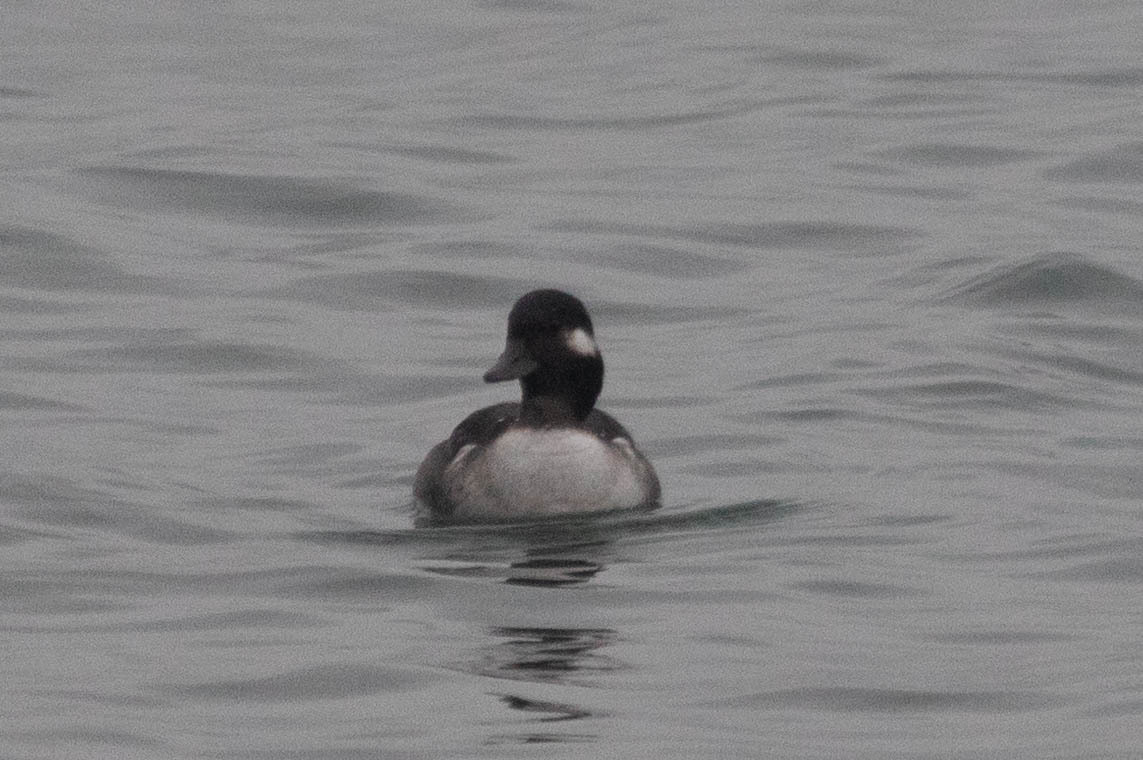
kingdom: Animalia
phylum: Chordata
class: Aves
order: Anseriformes
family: Anatidae
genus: Bucephala
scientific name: Bucephala albeola
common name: Bufflehead
